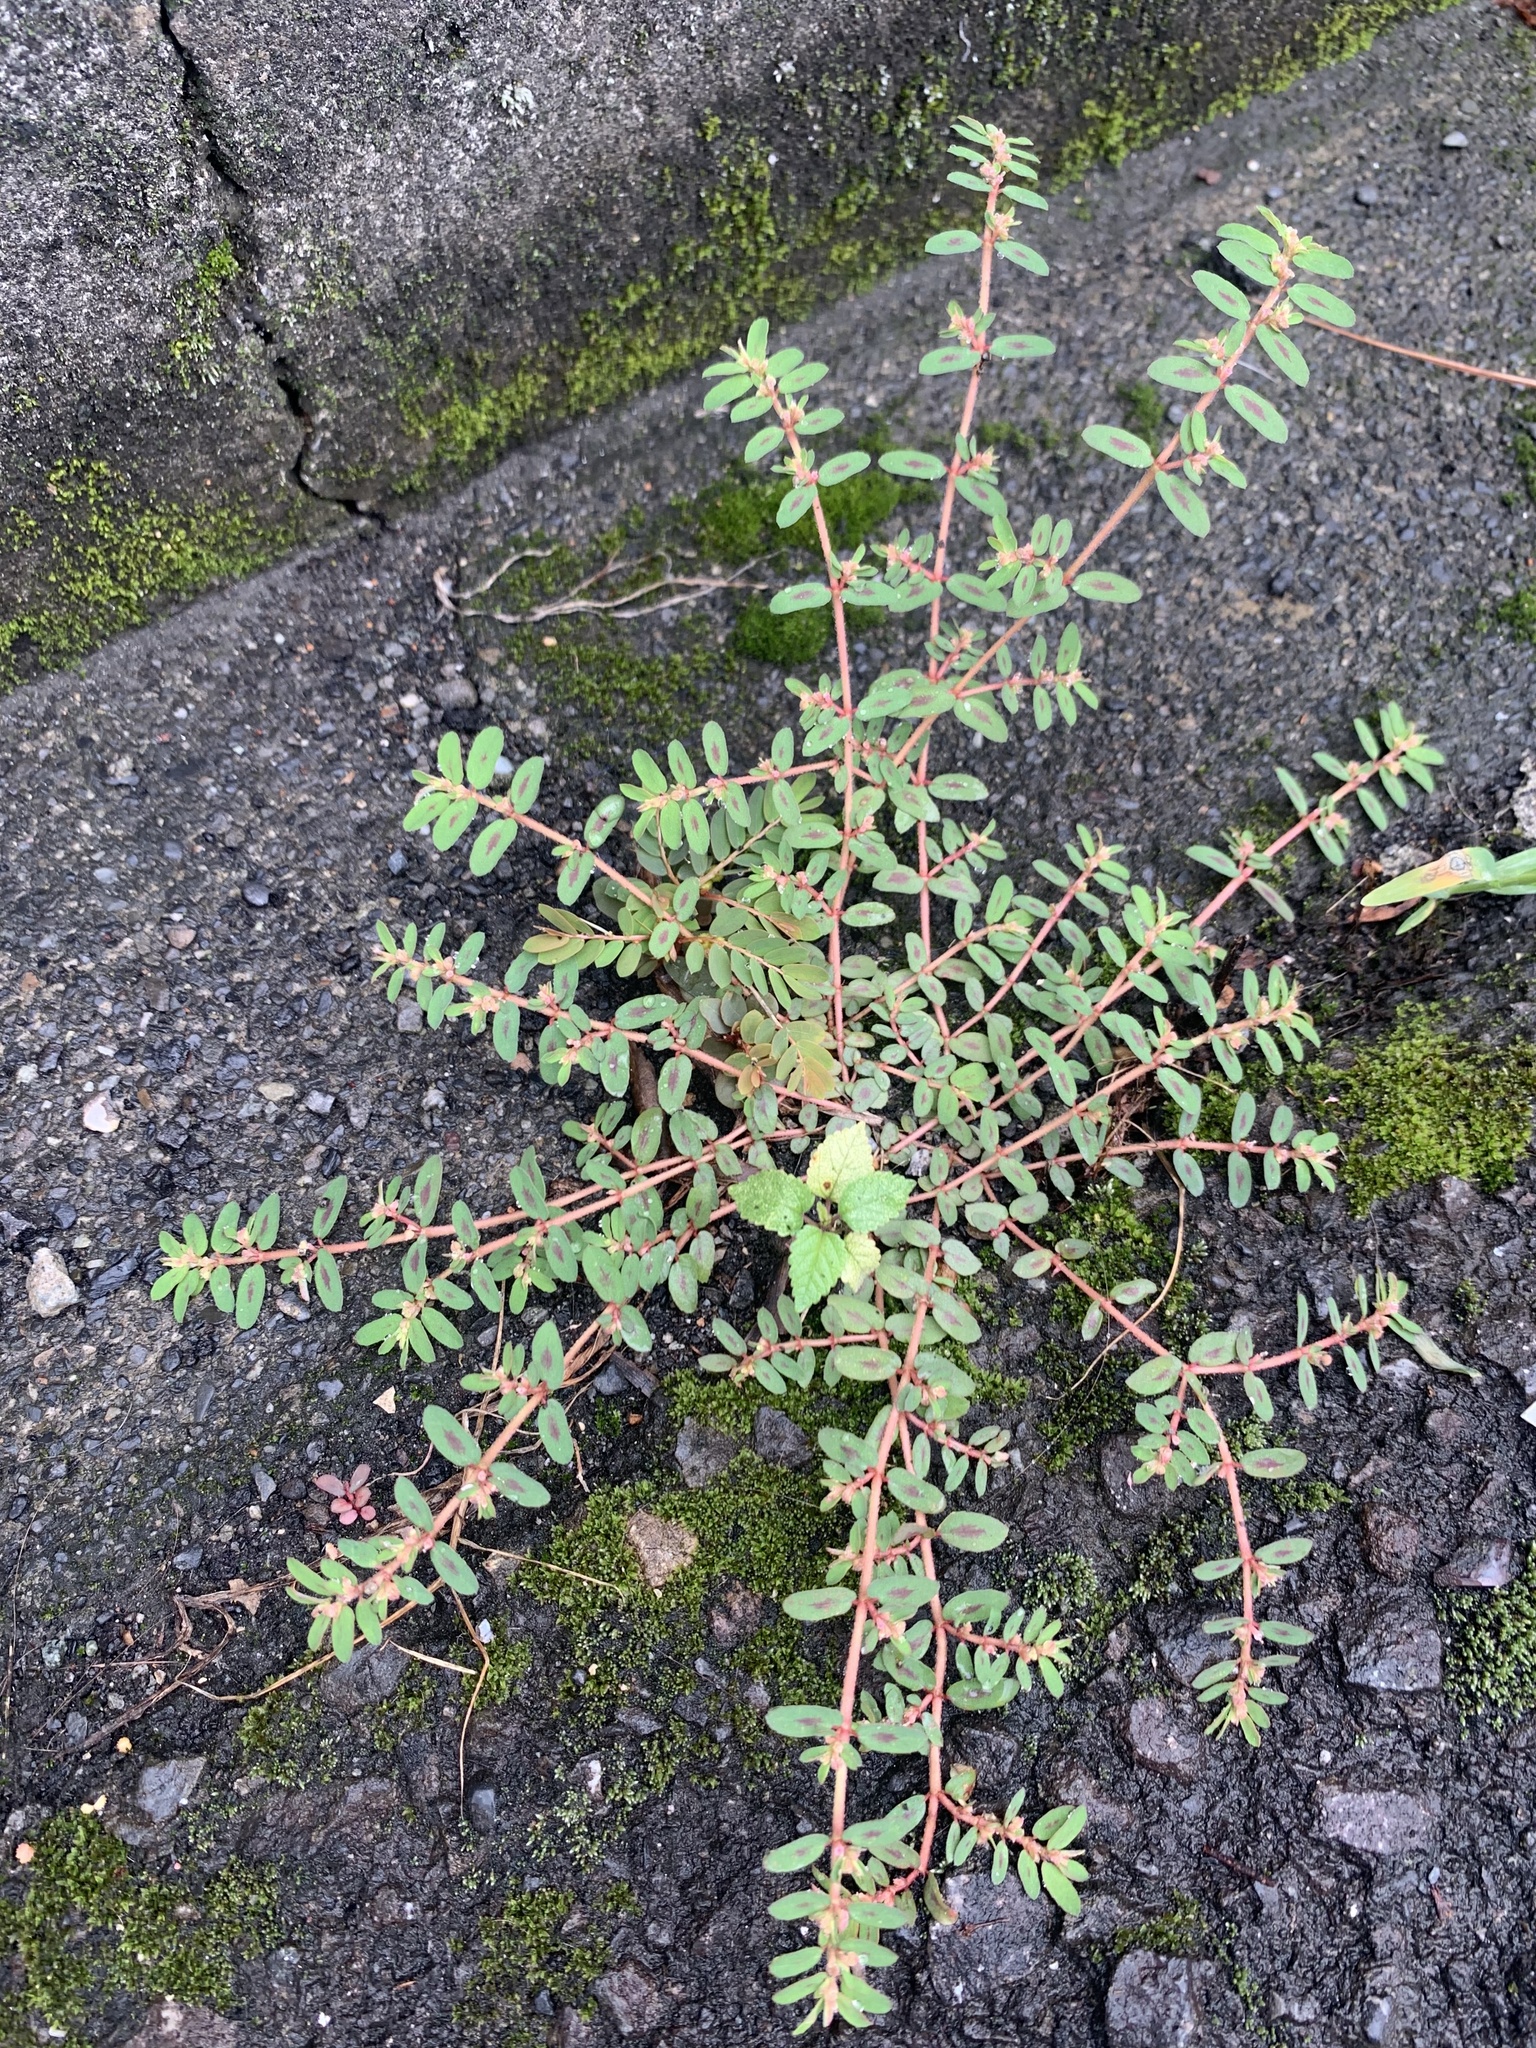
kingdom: Plantae
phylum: Tracheophyta
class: Magnoliopsida
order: Malpighiales
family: Euphorbiaceae
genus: Euphorbia
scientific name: Euphorbia maculata
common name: Spotted spurge
